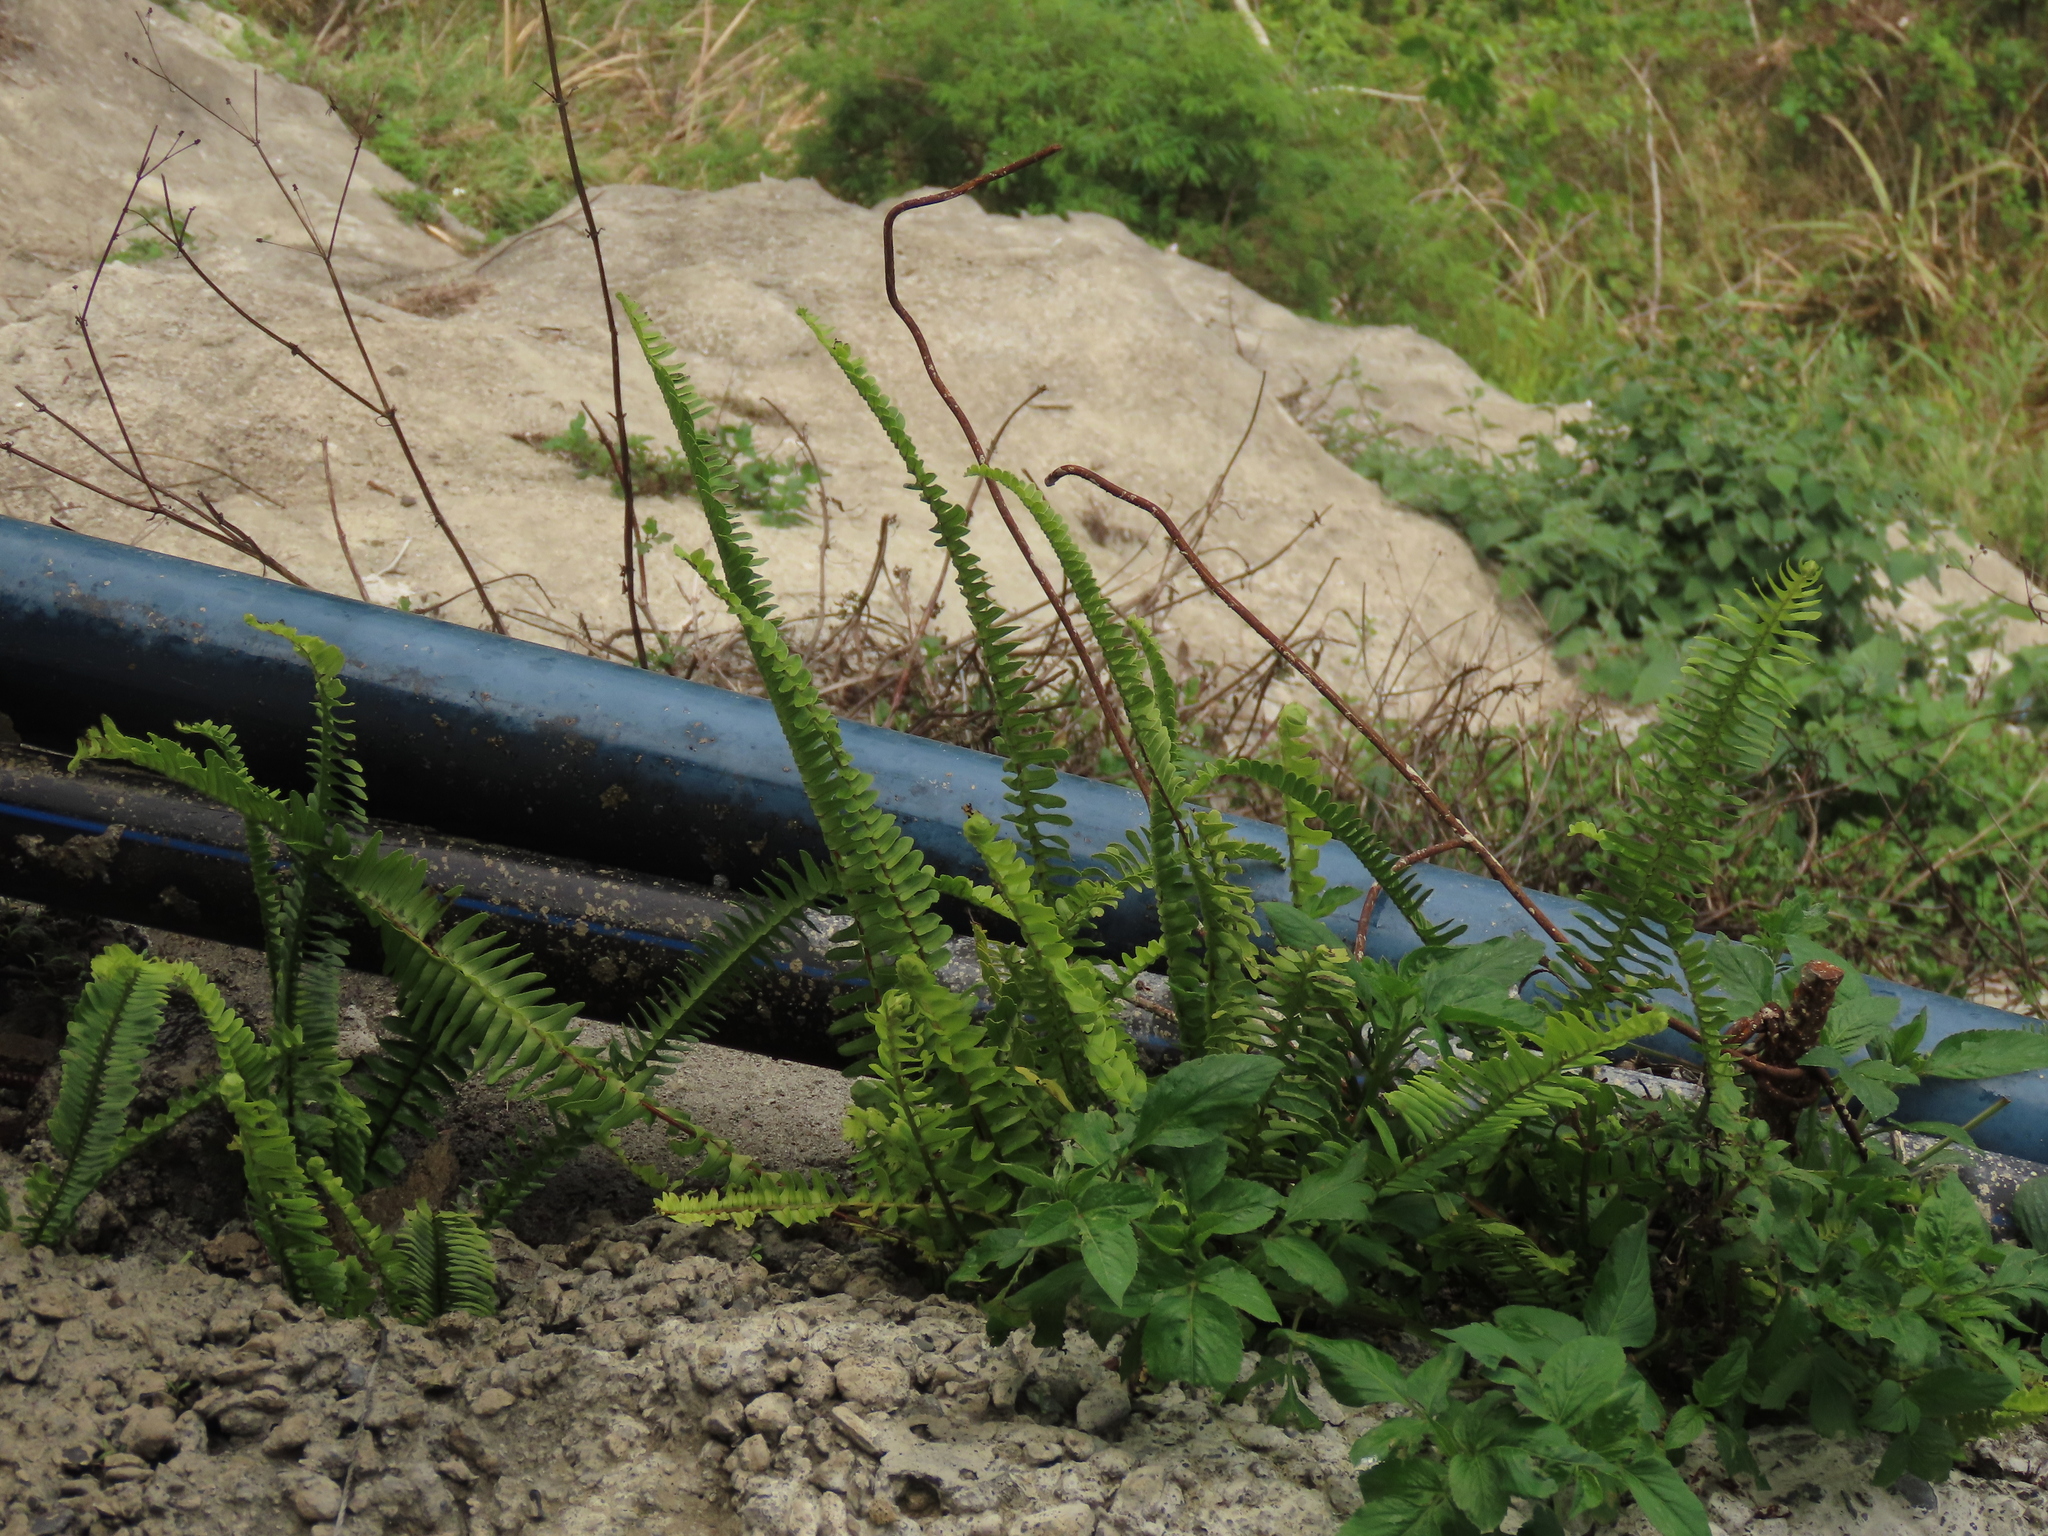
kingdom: Plantae
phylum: Tracheophyta
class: Polypodiopsida
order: Polypodiales
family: Nephrolepidaceae
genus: Nephrolepis
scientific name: Nephrolepis cordifolia
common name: Narrow swordfern
